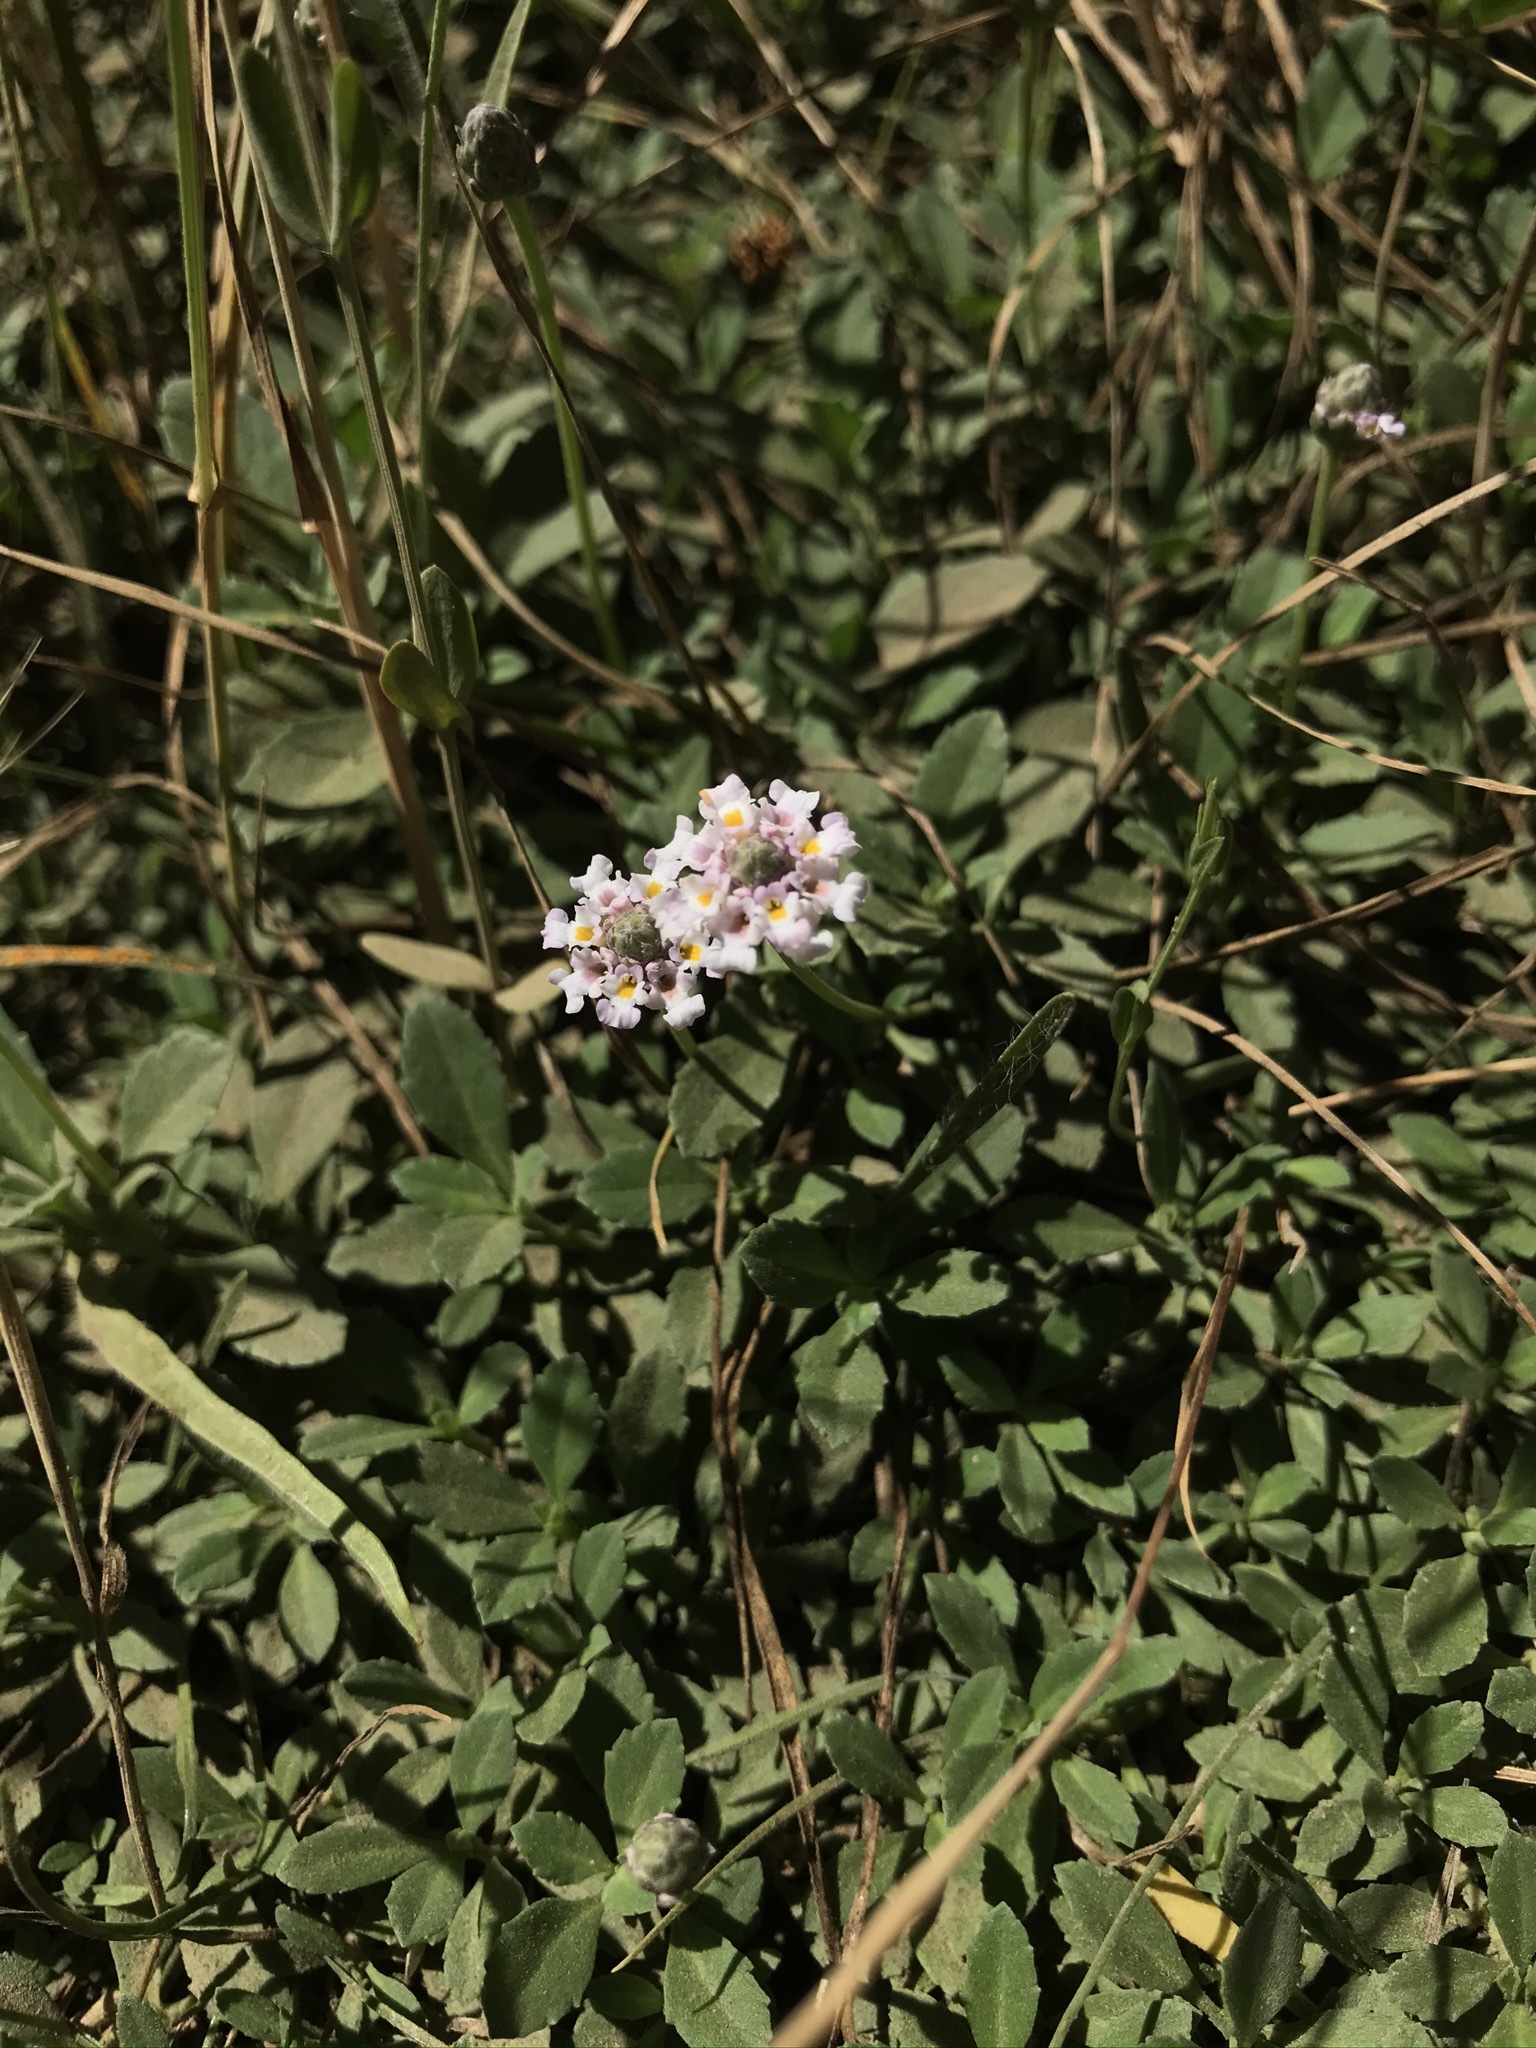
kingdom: Plantae
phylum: Tracheophyta
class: Magnoliopsida
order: Lamiales
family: Verbenaceae
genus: Phyla
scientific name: Phyla nodiflora
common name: Frogfruit
